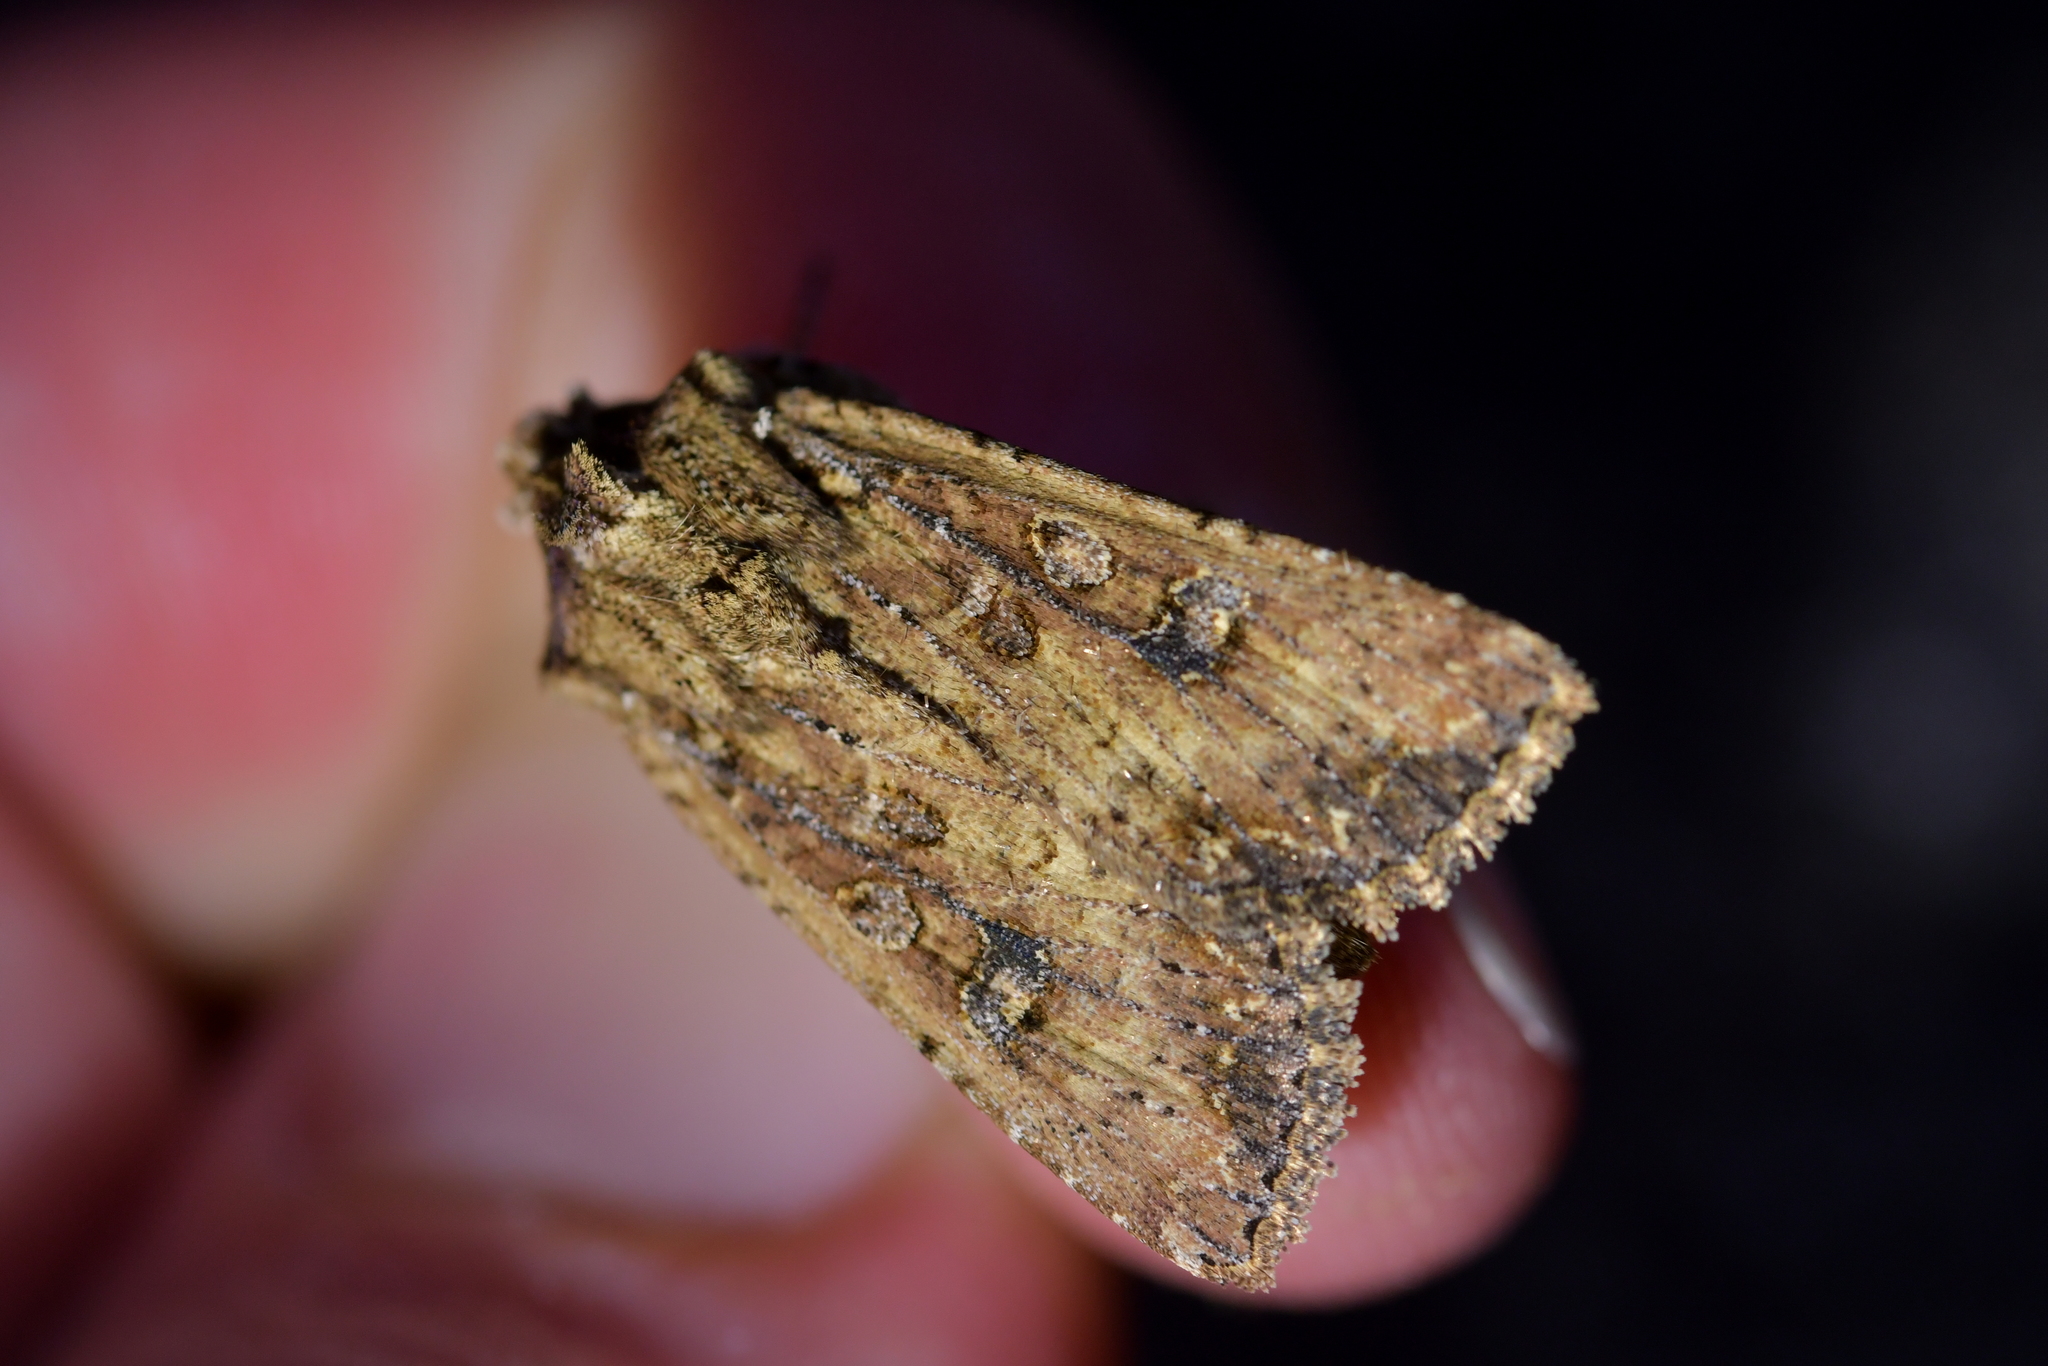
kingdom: Animalia
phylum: Arthropoda
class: Insecta
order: Lepidoptera
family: Noctuidae
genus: Ichneutica
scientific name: Ichneutica morosa
